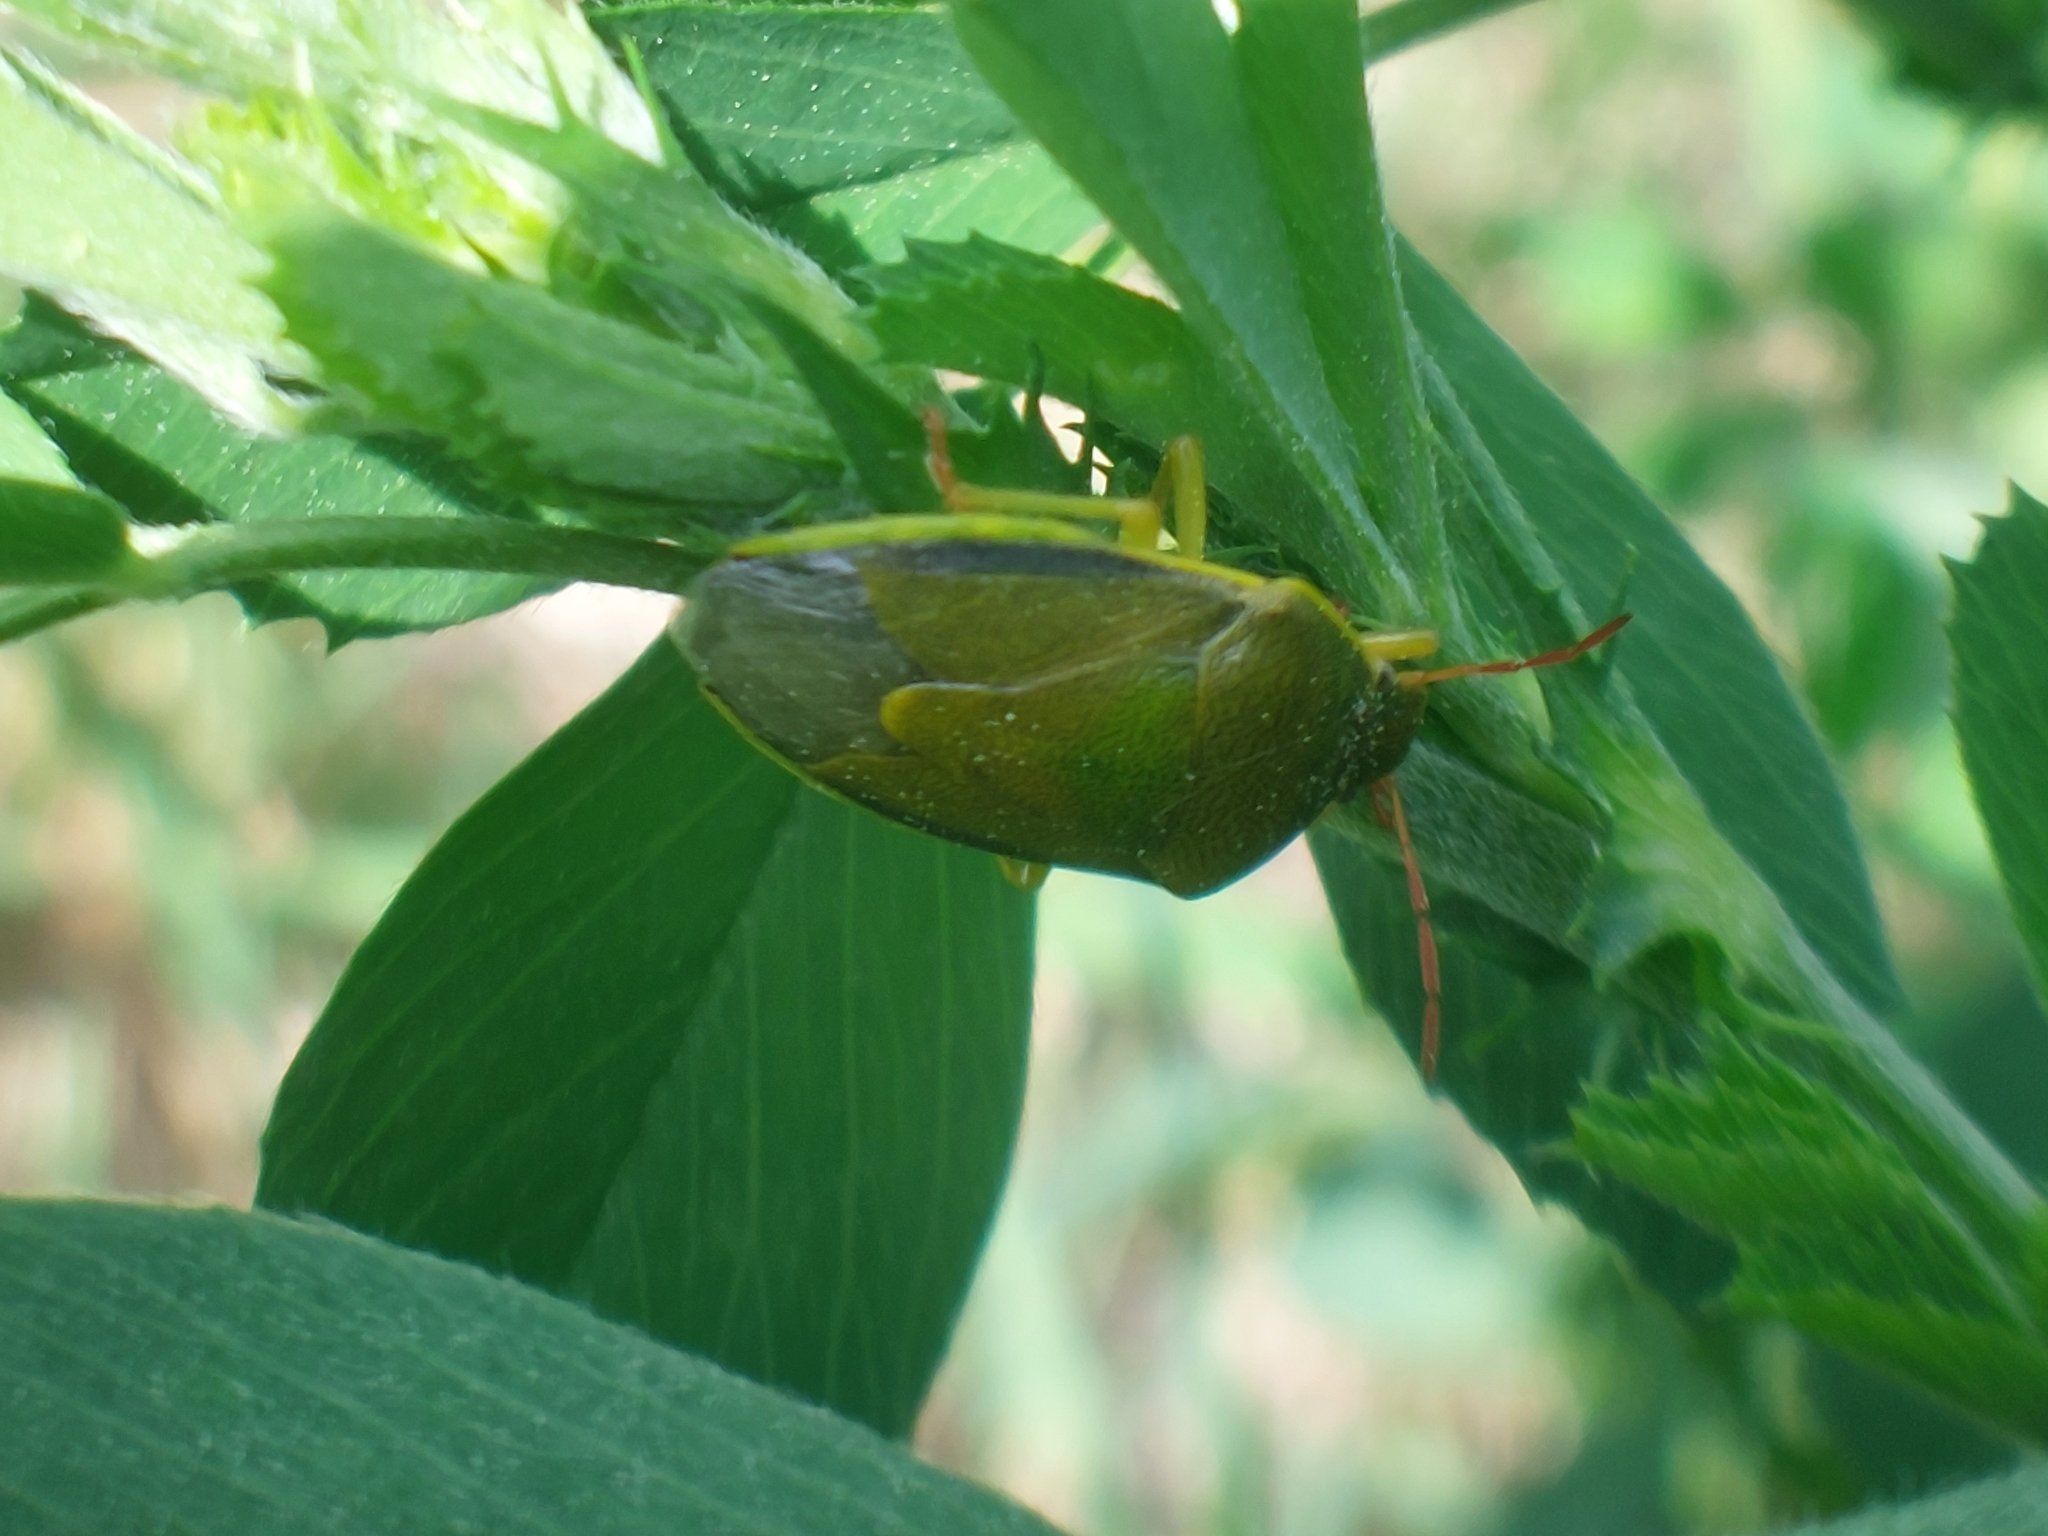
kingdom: Animalia
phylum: Arthropoda
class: Insecta
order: Hemiptera
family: Pentatomidae
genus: Piezodorus
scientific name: Piezodorus lituratus
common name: Stink bug
